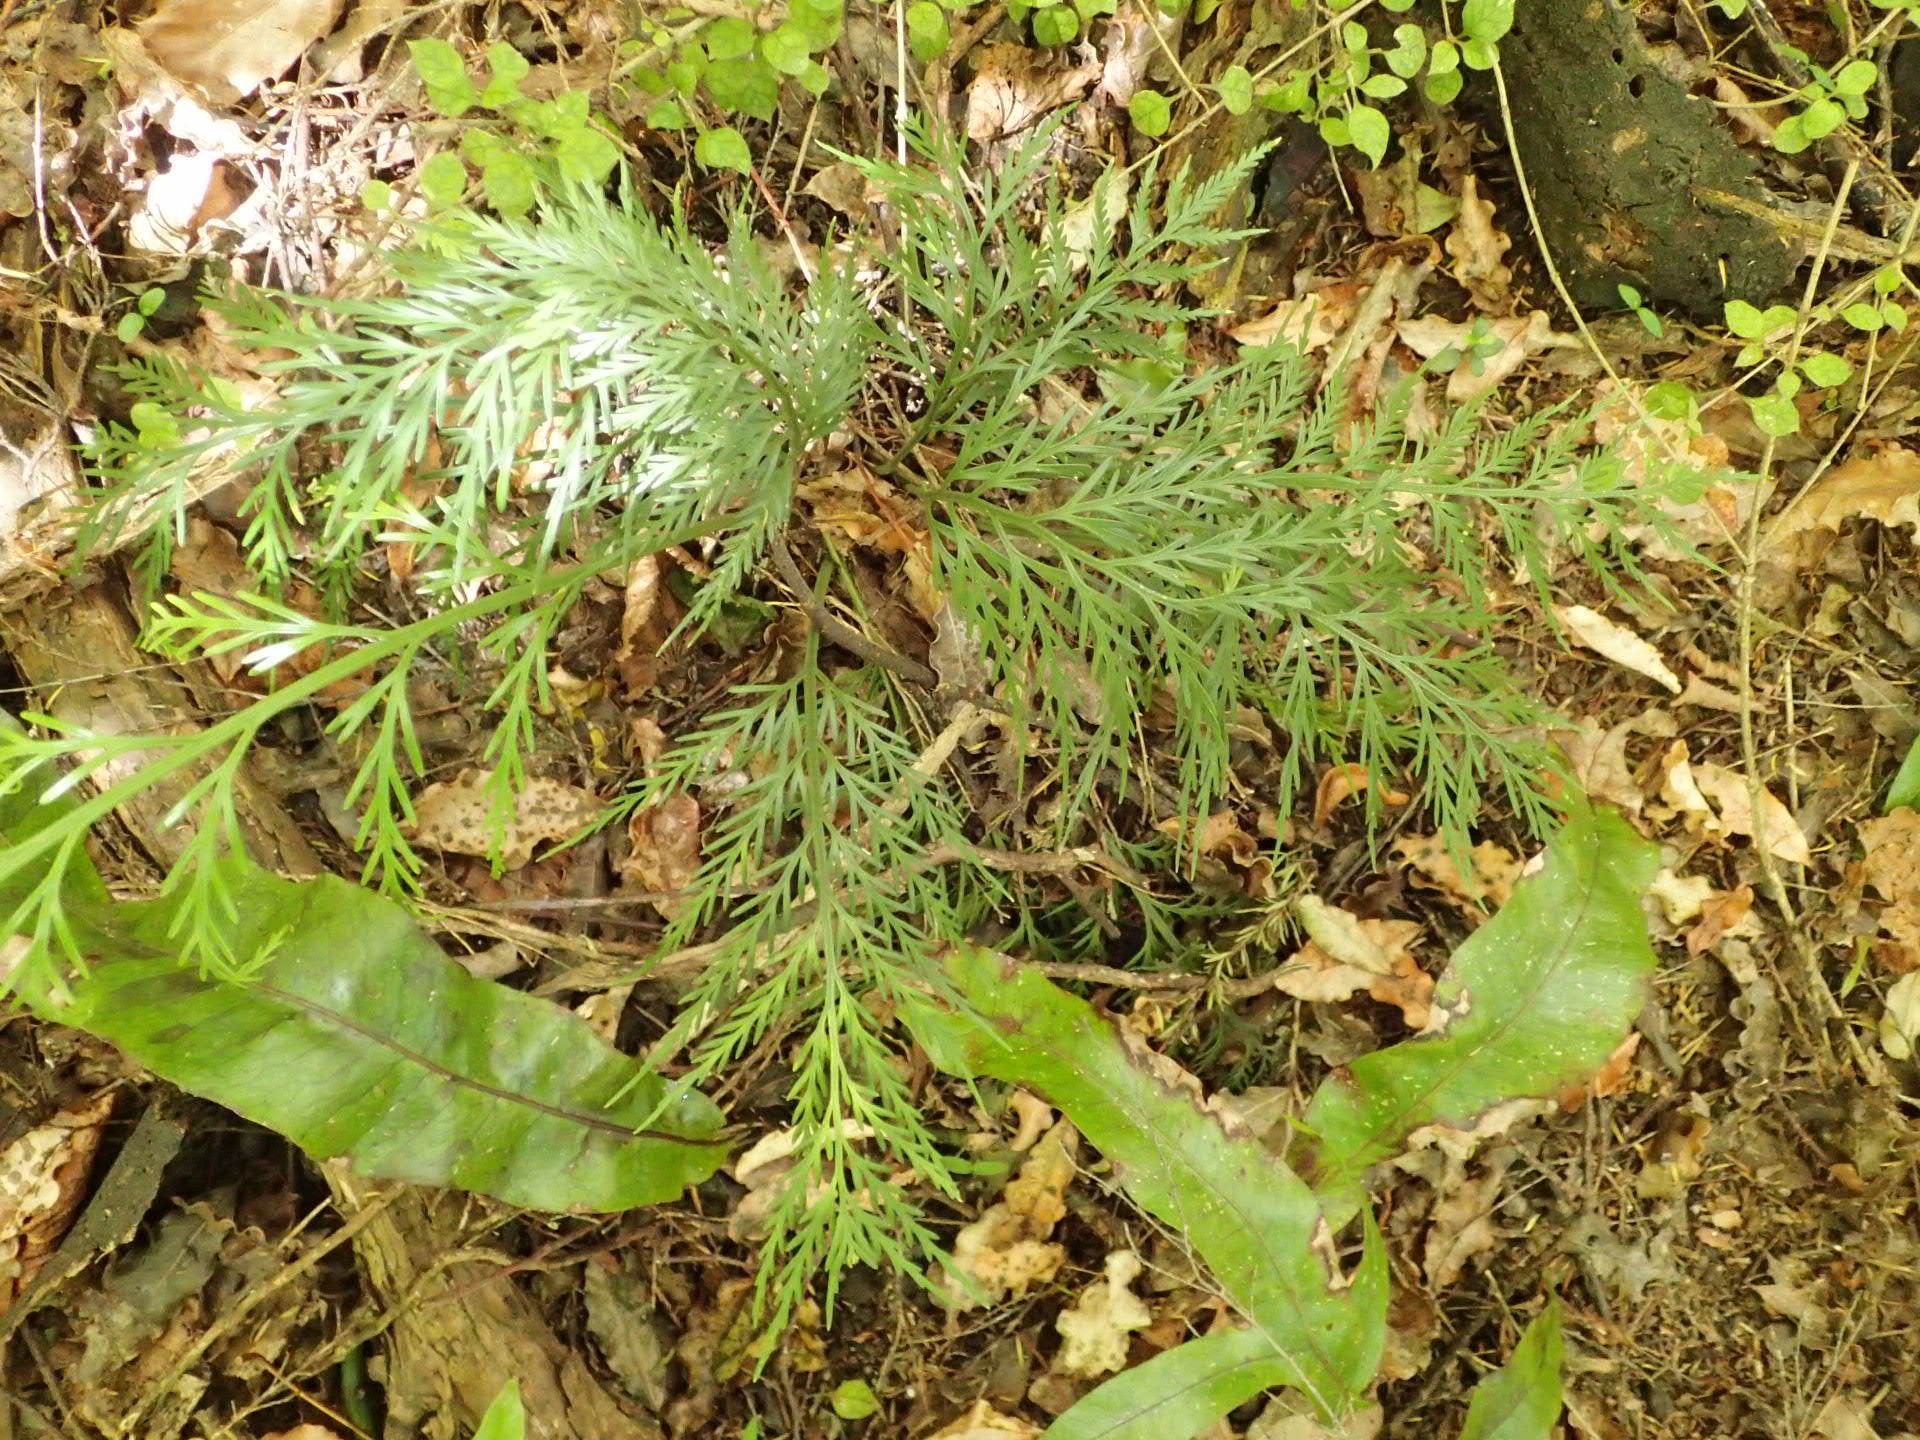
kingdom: Plantae
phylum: Tracheophyta
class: Polypodiopsida
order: Polypodiales
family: Aspleniaceae
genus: Asplenium
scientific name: Asplenium flaccidum
